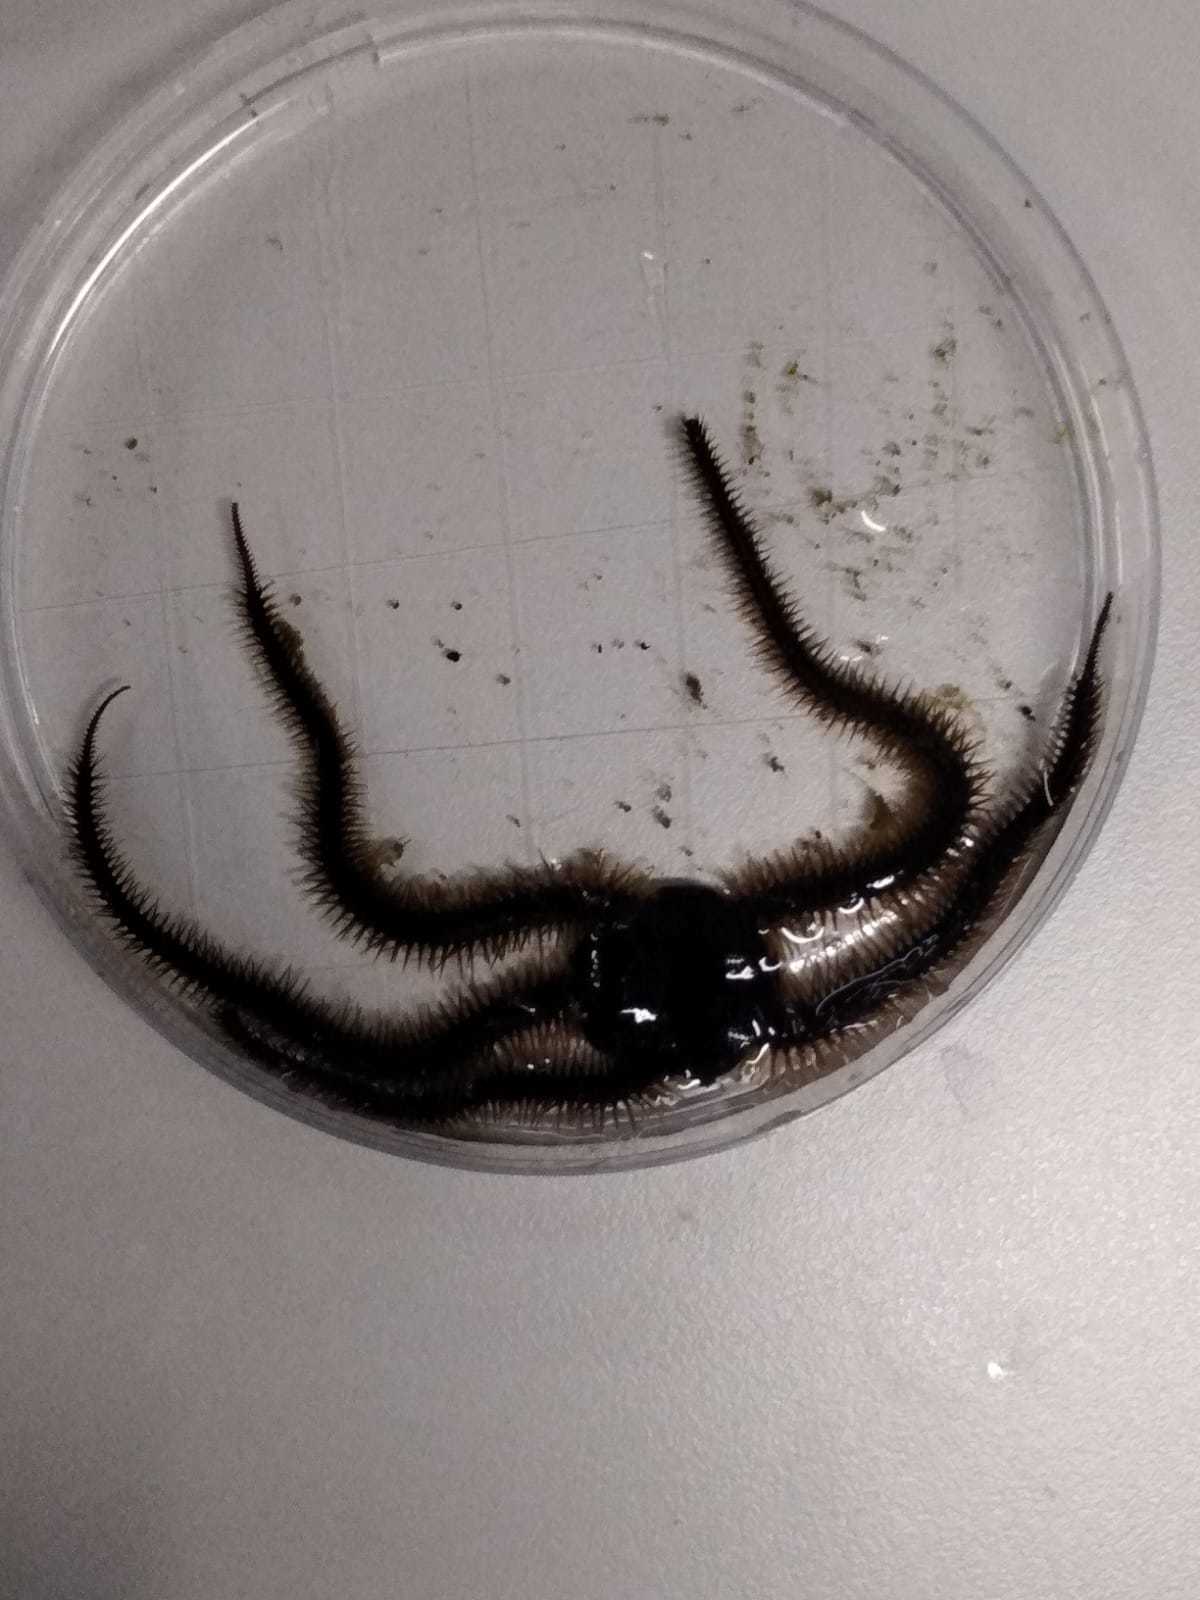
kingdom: Animalia
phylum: Echinodermata
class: Ophiuroidea
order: Ophiacanthida
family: Ophiotomidae
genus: Ophiocomina
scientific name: Ophiocomina nigra
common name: Black brittle star
